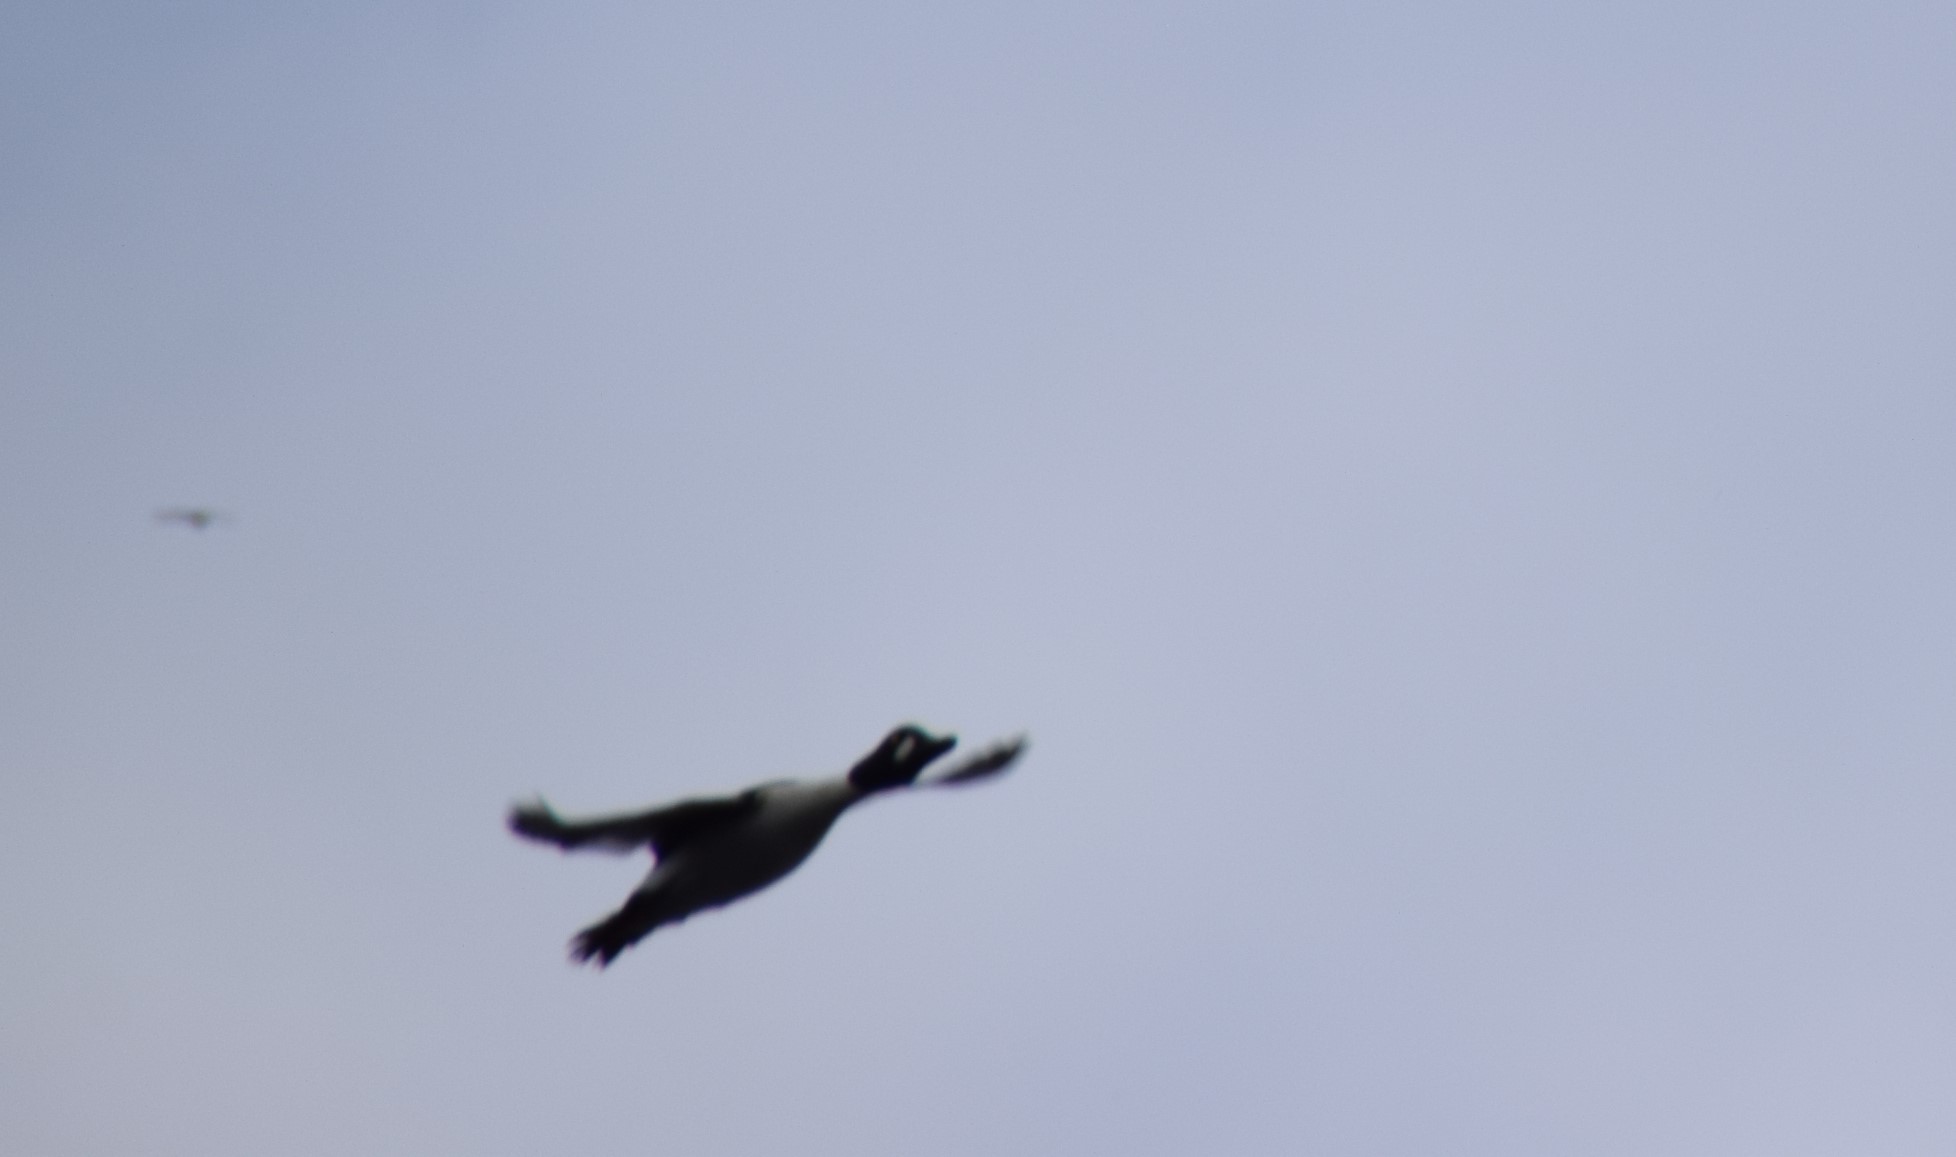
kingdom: Animalia
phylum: Chordata
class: Aves
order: Anseriformes
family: Anatidae
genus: Bucephala
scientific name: Bucephala clangula
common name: Common goldeneye
